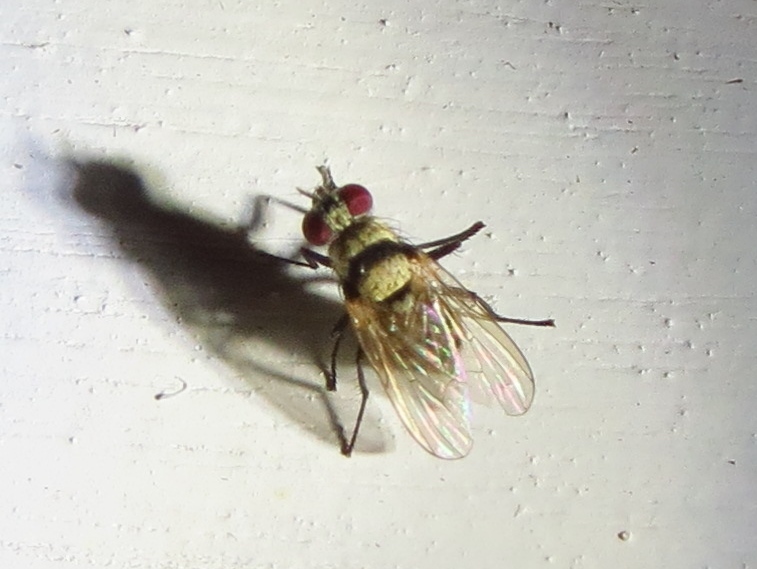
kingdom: Animalia
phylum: Arthropoda
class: Insecta
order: Diptera
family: Anthomyiidae
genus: Anthomyia
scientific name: Anthomyia illocata
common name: Fly
